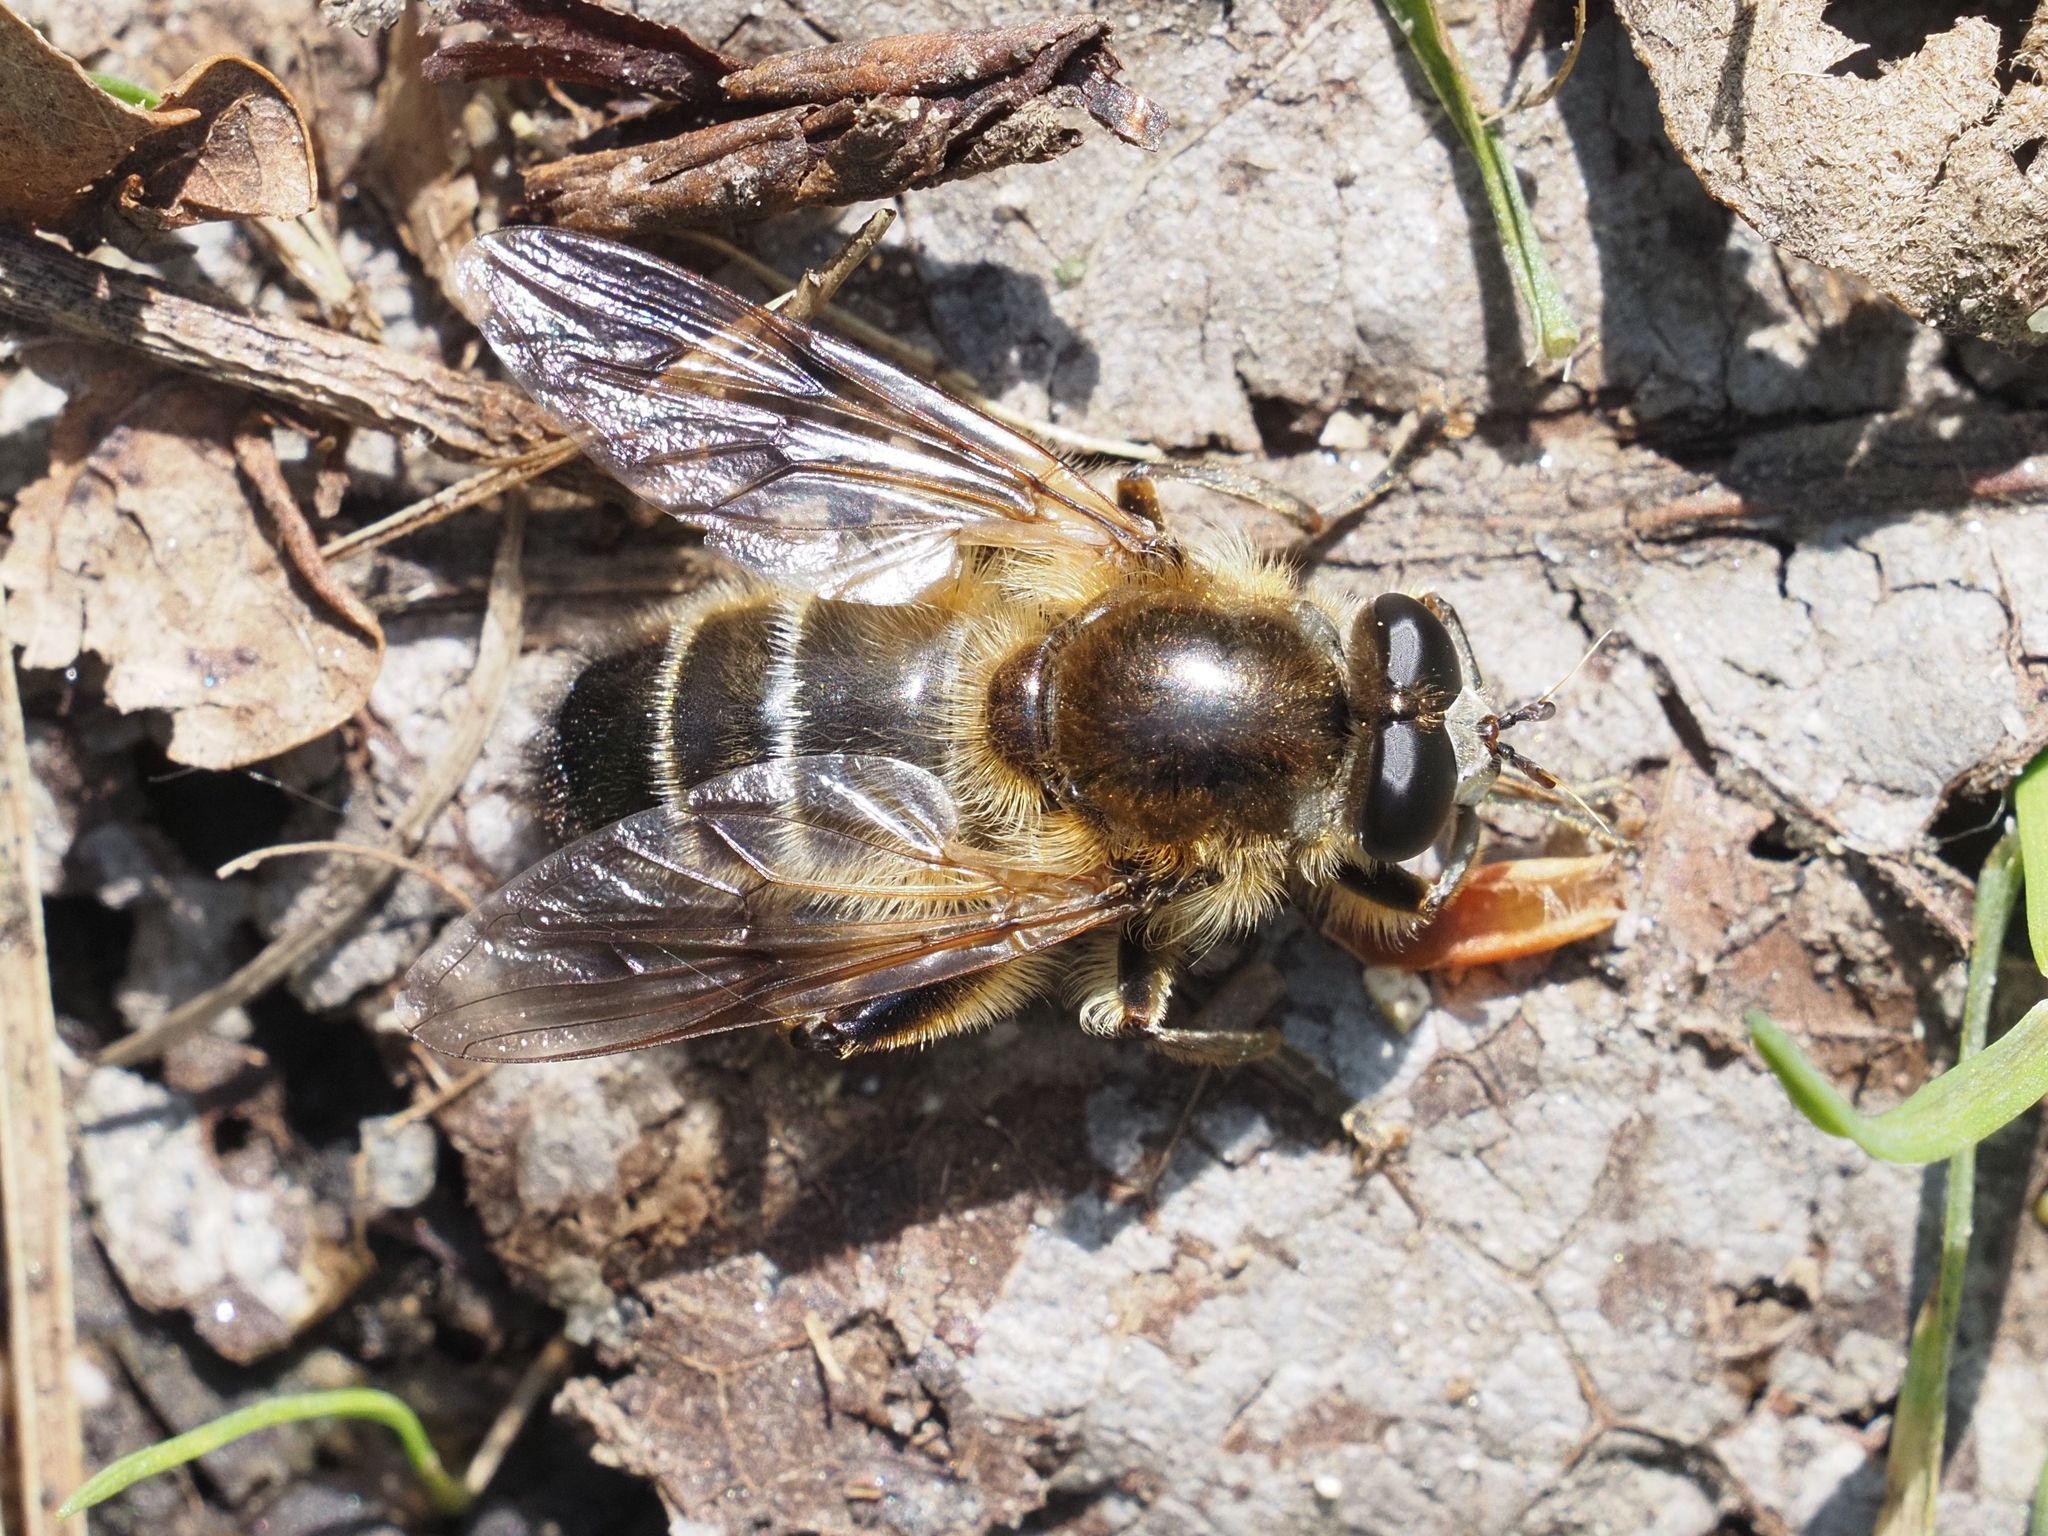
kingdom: Animalia
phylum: Arthropoda
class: Insecta
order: Diptera
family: Syrphidae
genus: Brachypalpus
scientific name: Brachypalpus valgus
